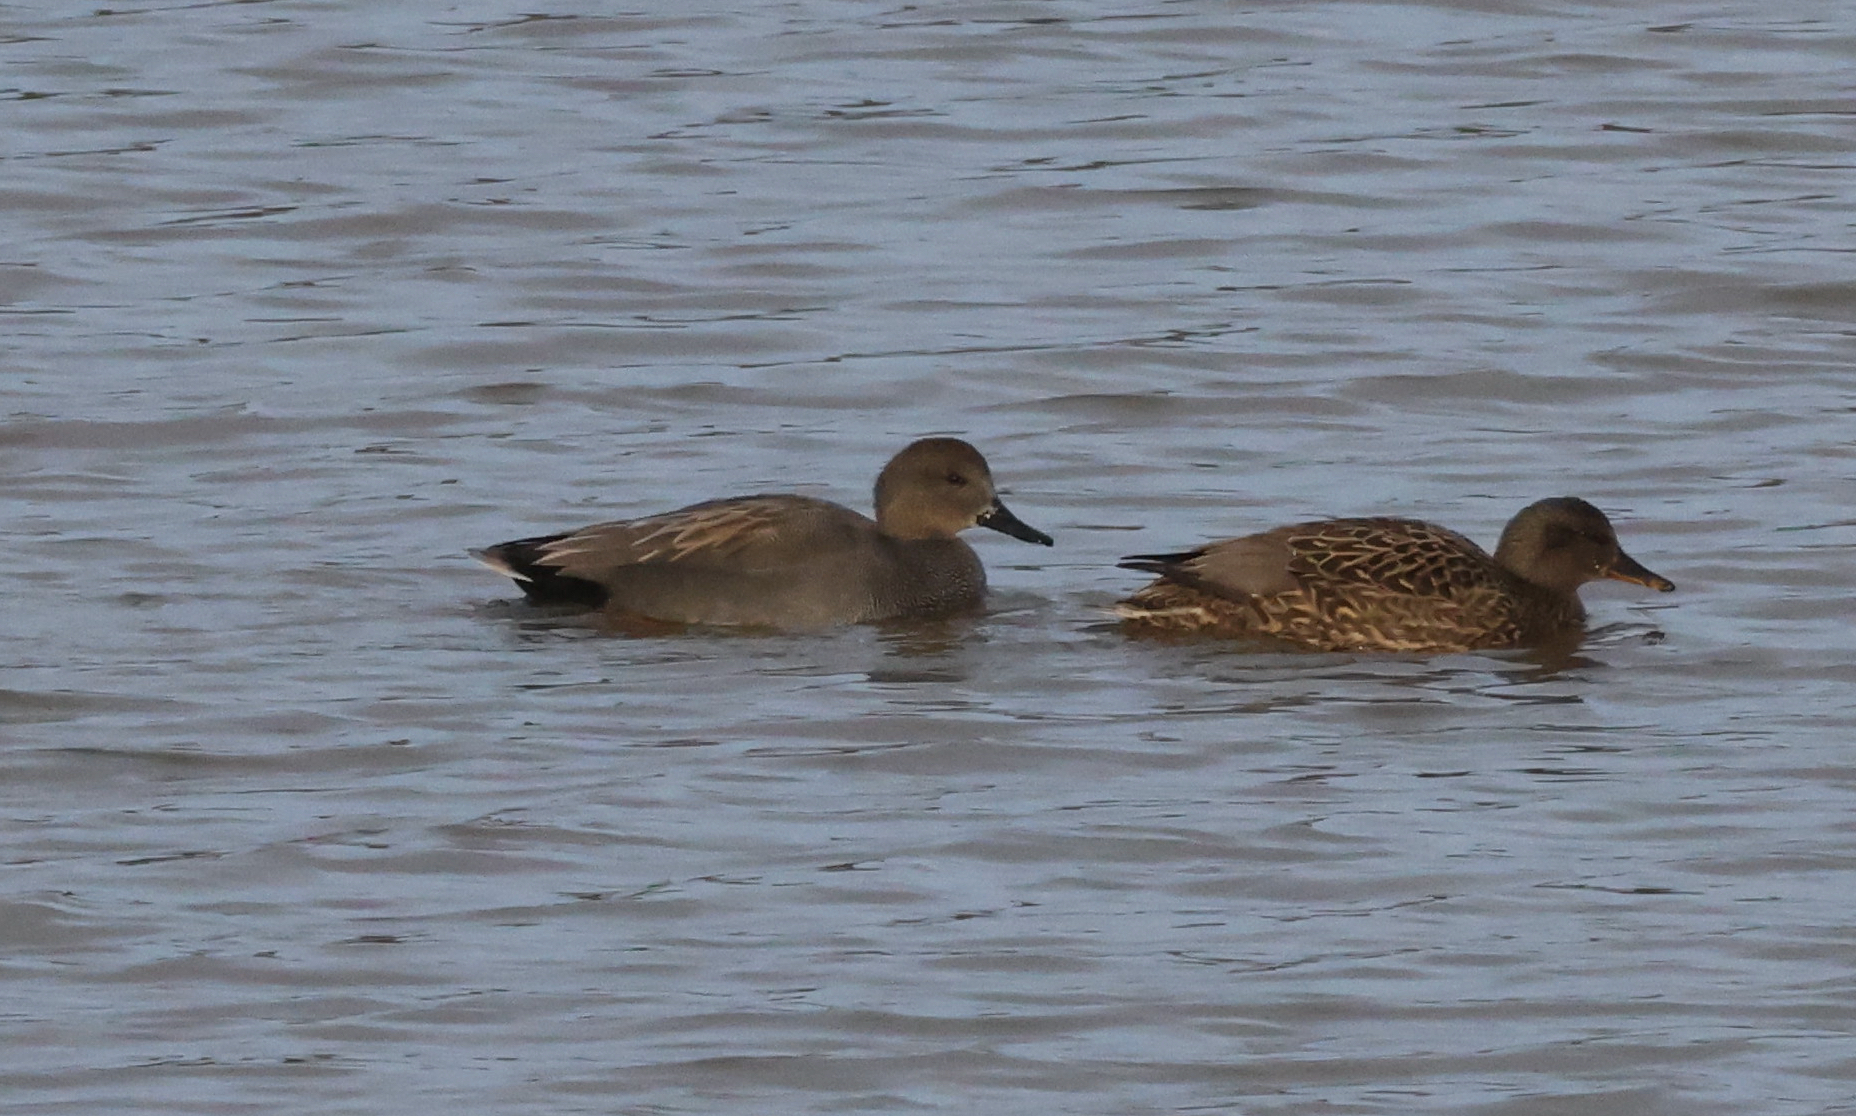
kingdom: Animalia
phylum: Chordata
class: Aves
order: Anseriformes
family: Anatidae
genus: Mareca
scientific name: Mareca strepera
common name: Gadwall
